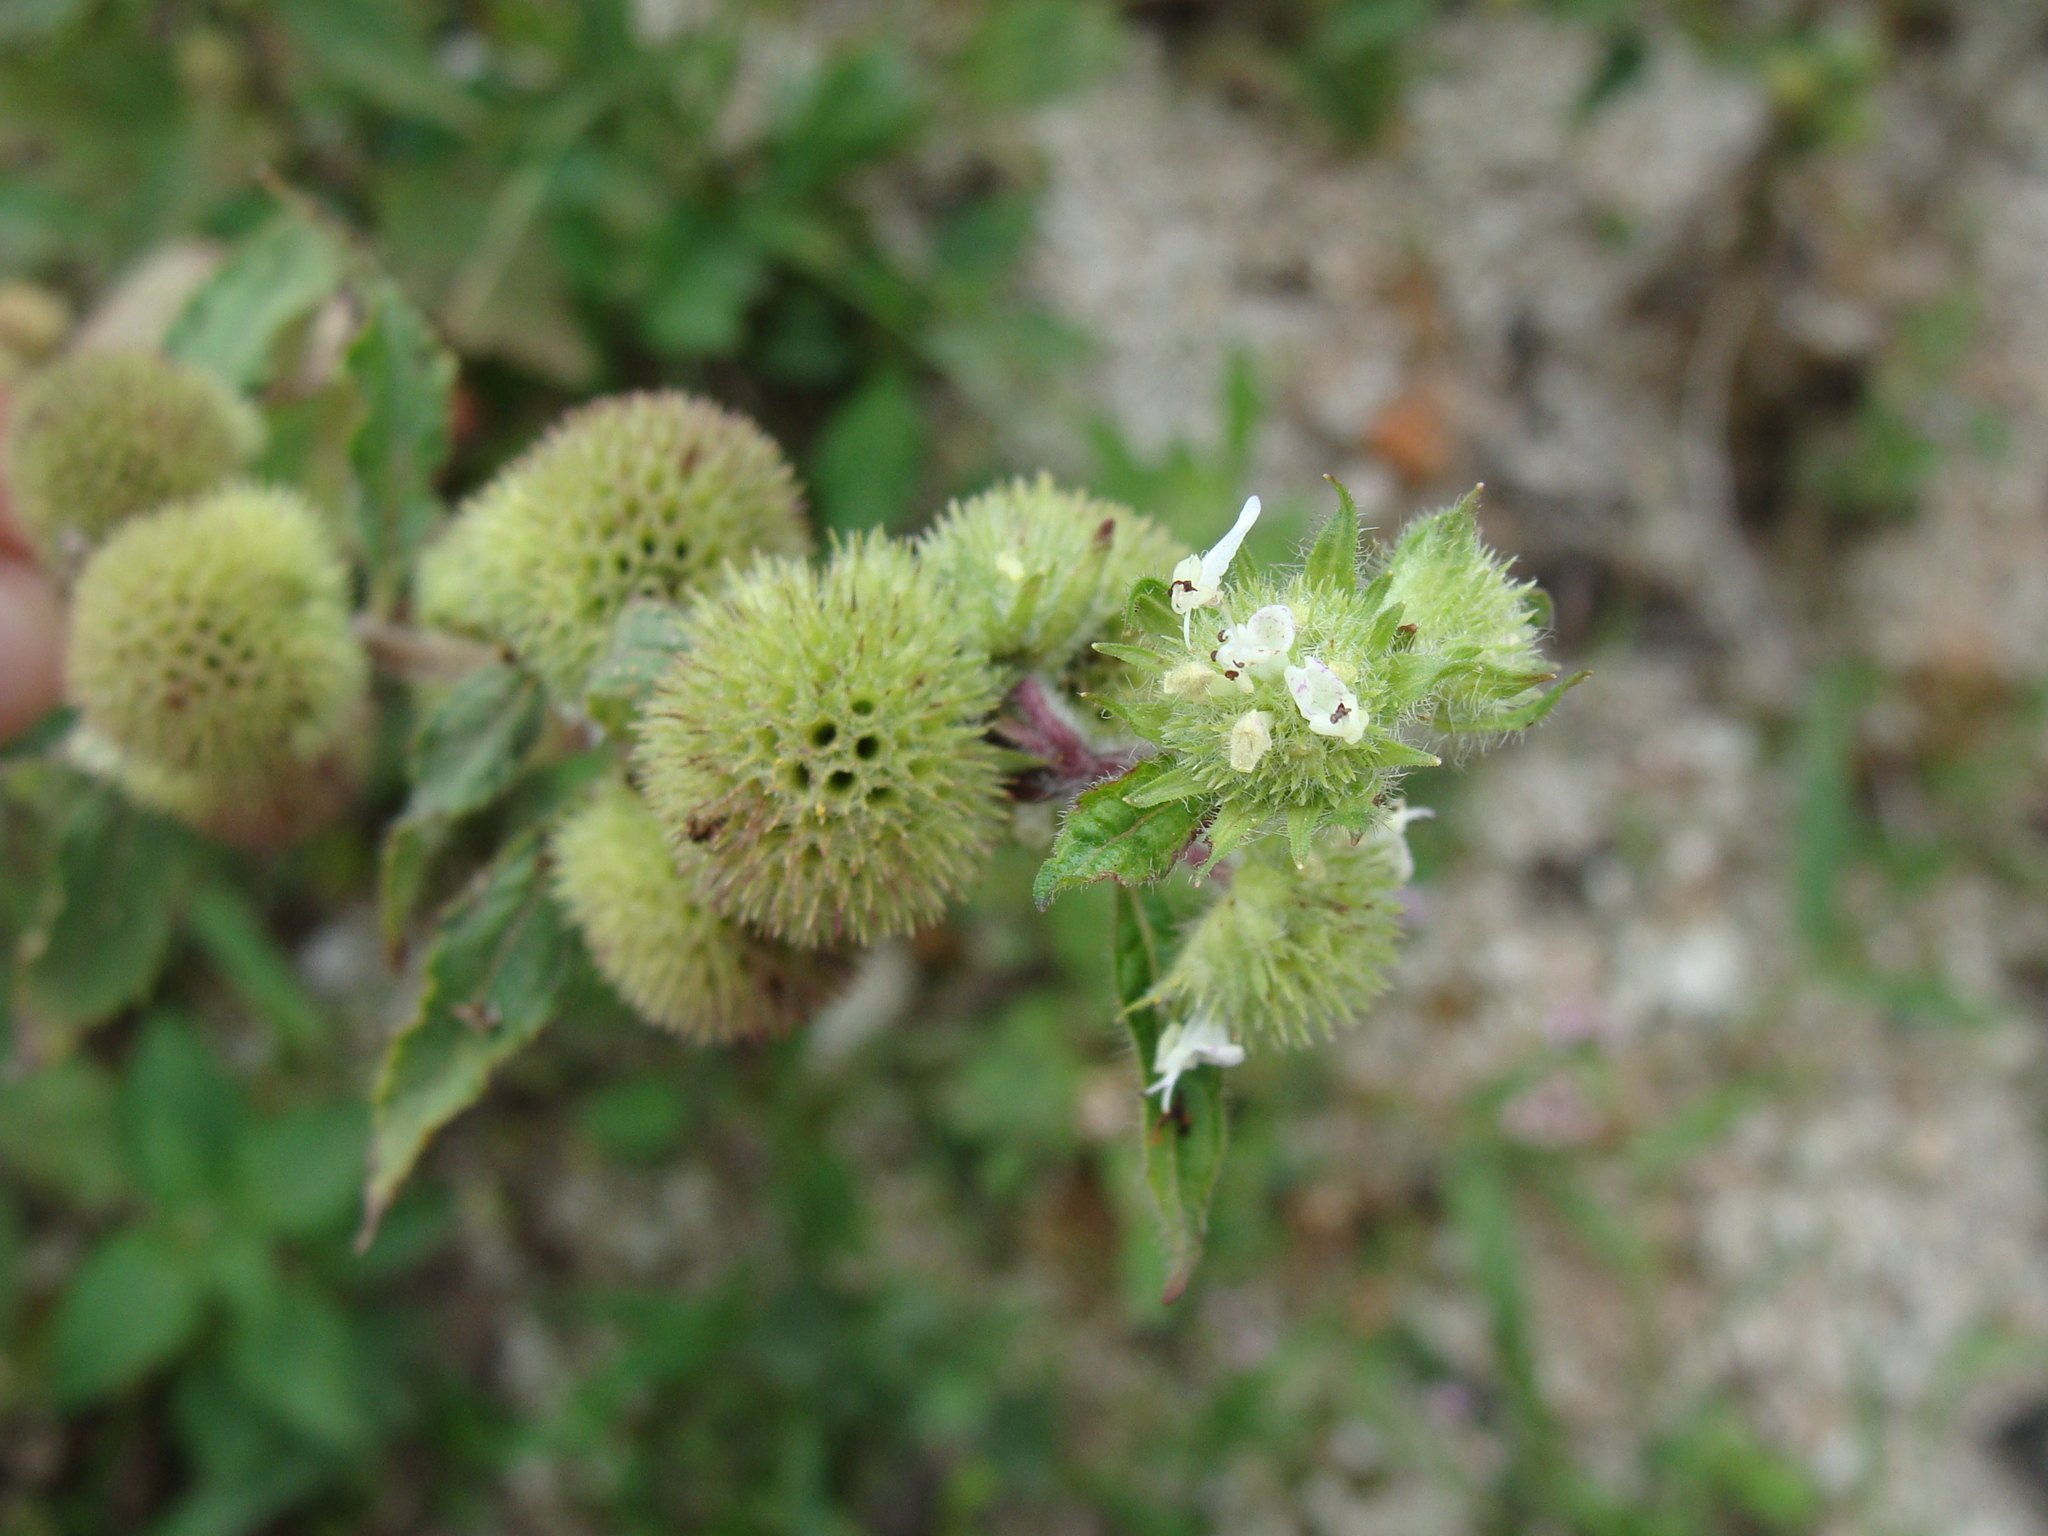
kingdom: Plantae
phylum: Tracheophyta
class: Magnoliopsida
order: Lamiales
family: Lamiaceae
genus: Hyptis
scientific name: Hyptis capitata
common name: False ironwort
